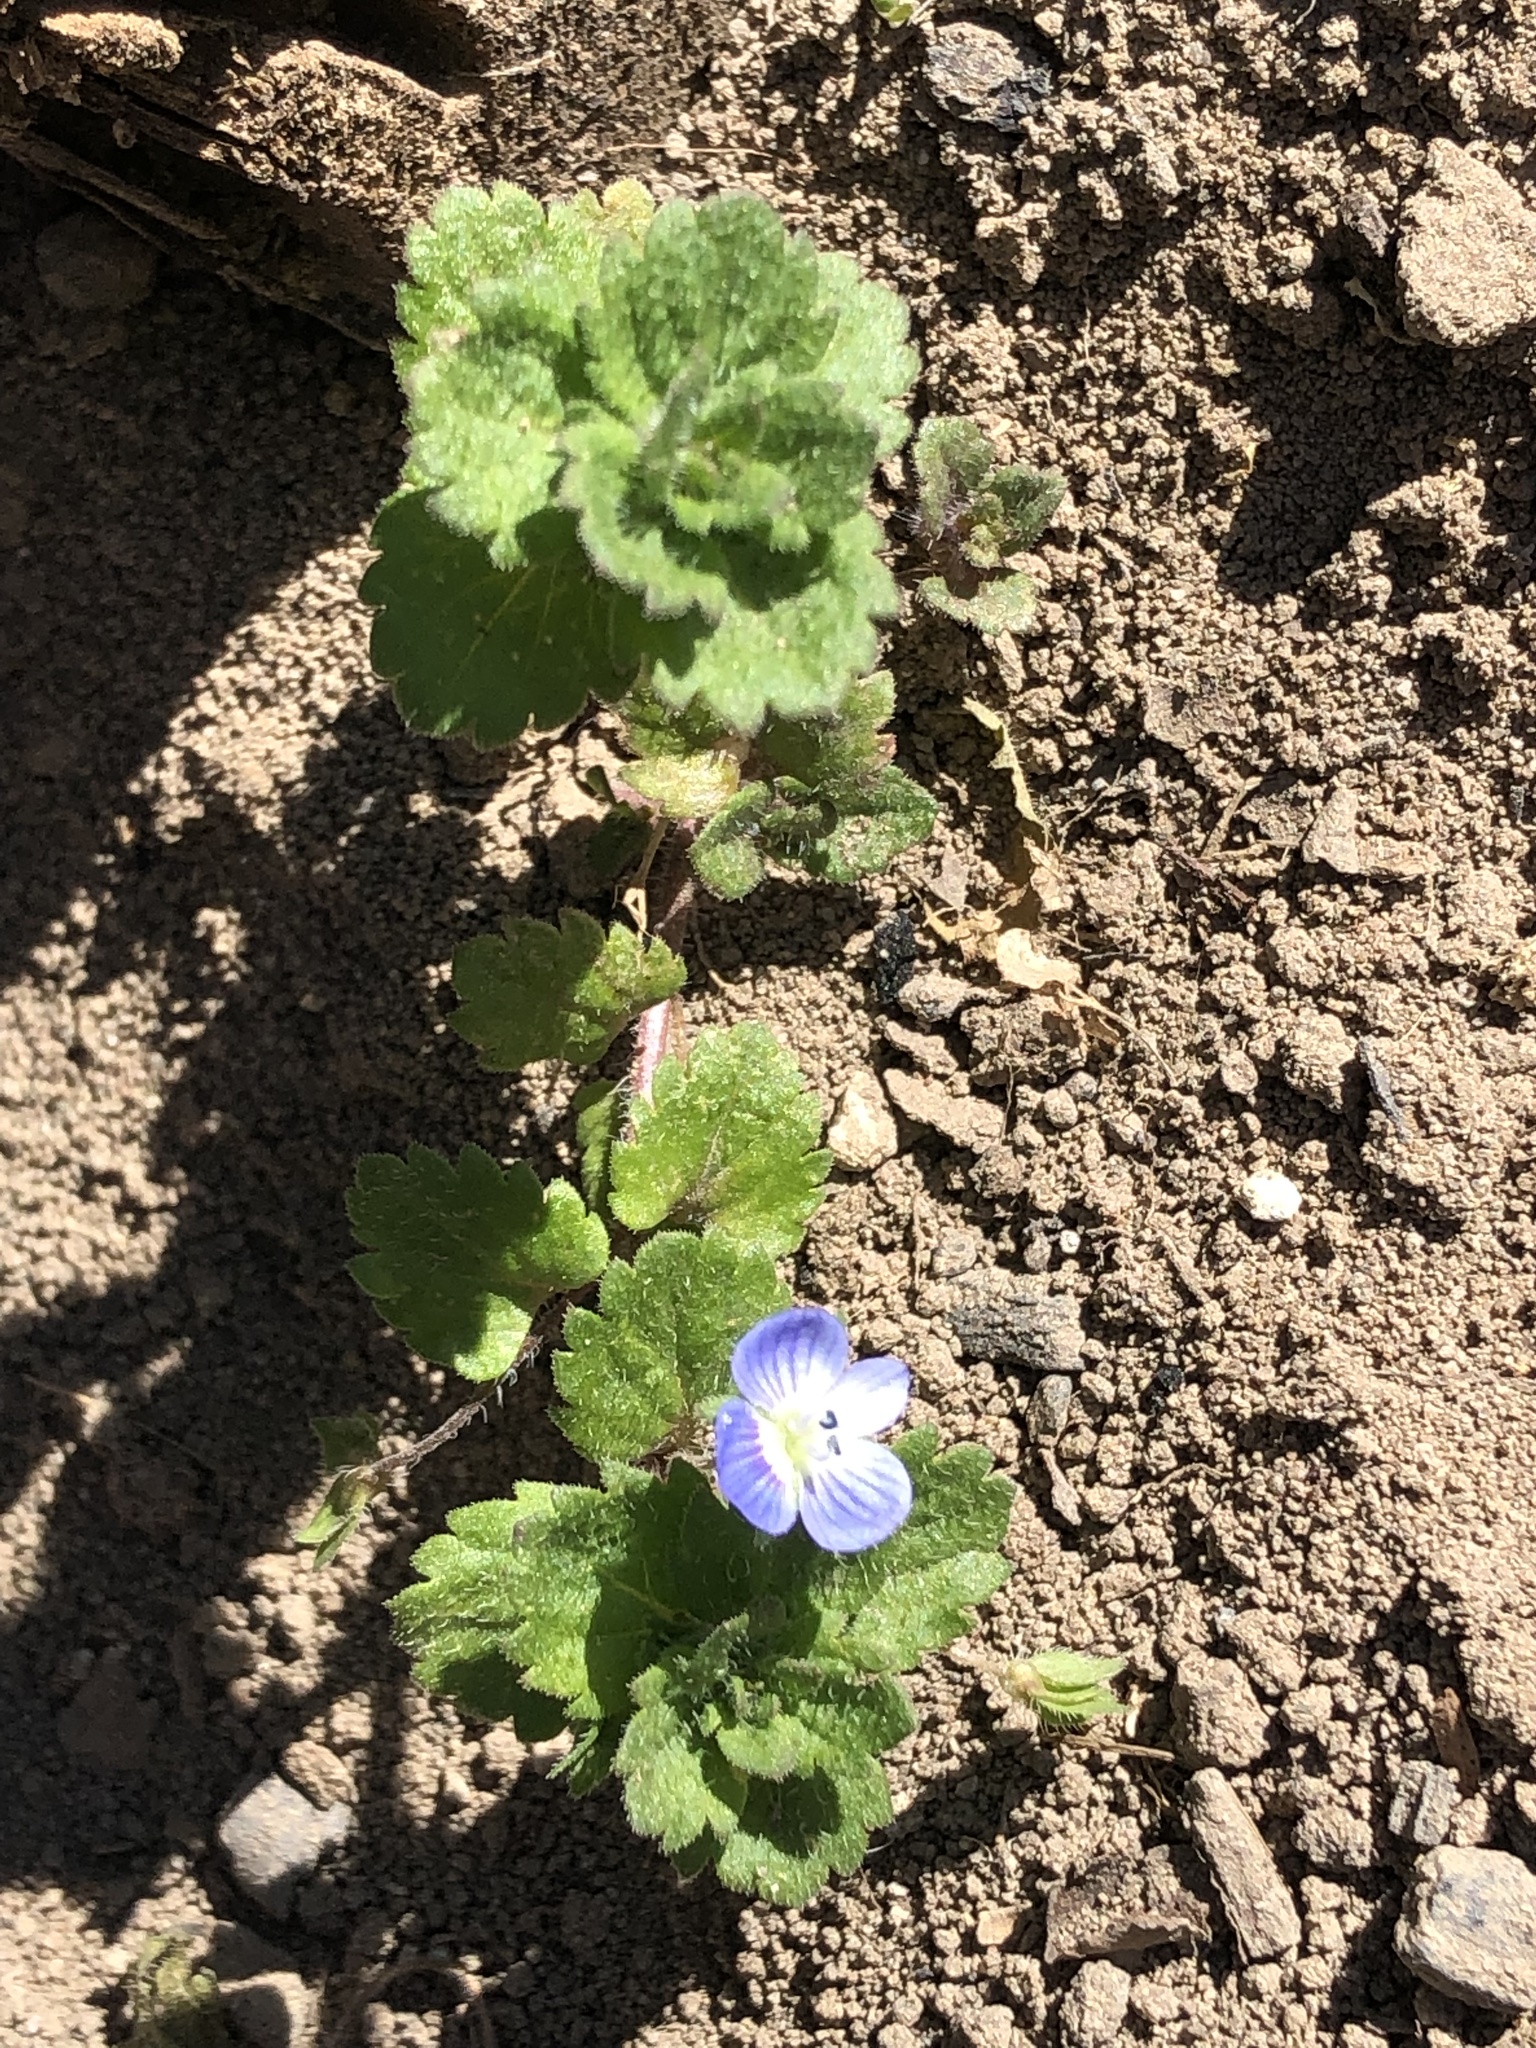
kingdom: Plantae
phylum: Tracheophyta
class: Magnoliopsida
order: Lamiales
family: Plantaginaceae
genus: Veronica
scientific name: Veronica persica
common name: Common field-speedwell
